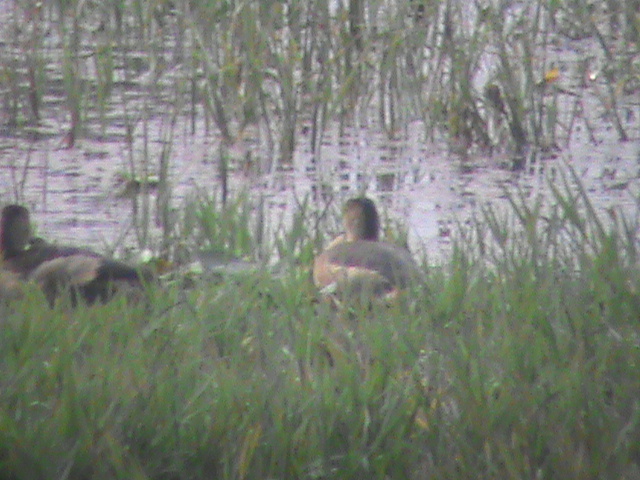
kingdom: Animalia
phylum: Chordata
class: Aves
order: Anseriformes
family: Anatidae
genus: Dendrocygna
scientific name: Dendrocygna javanica
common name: Lesser whistling-duck
